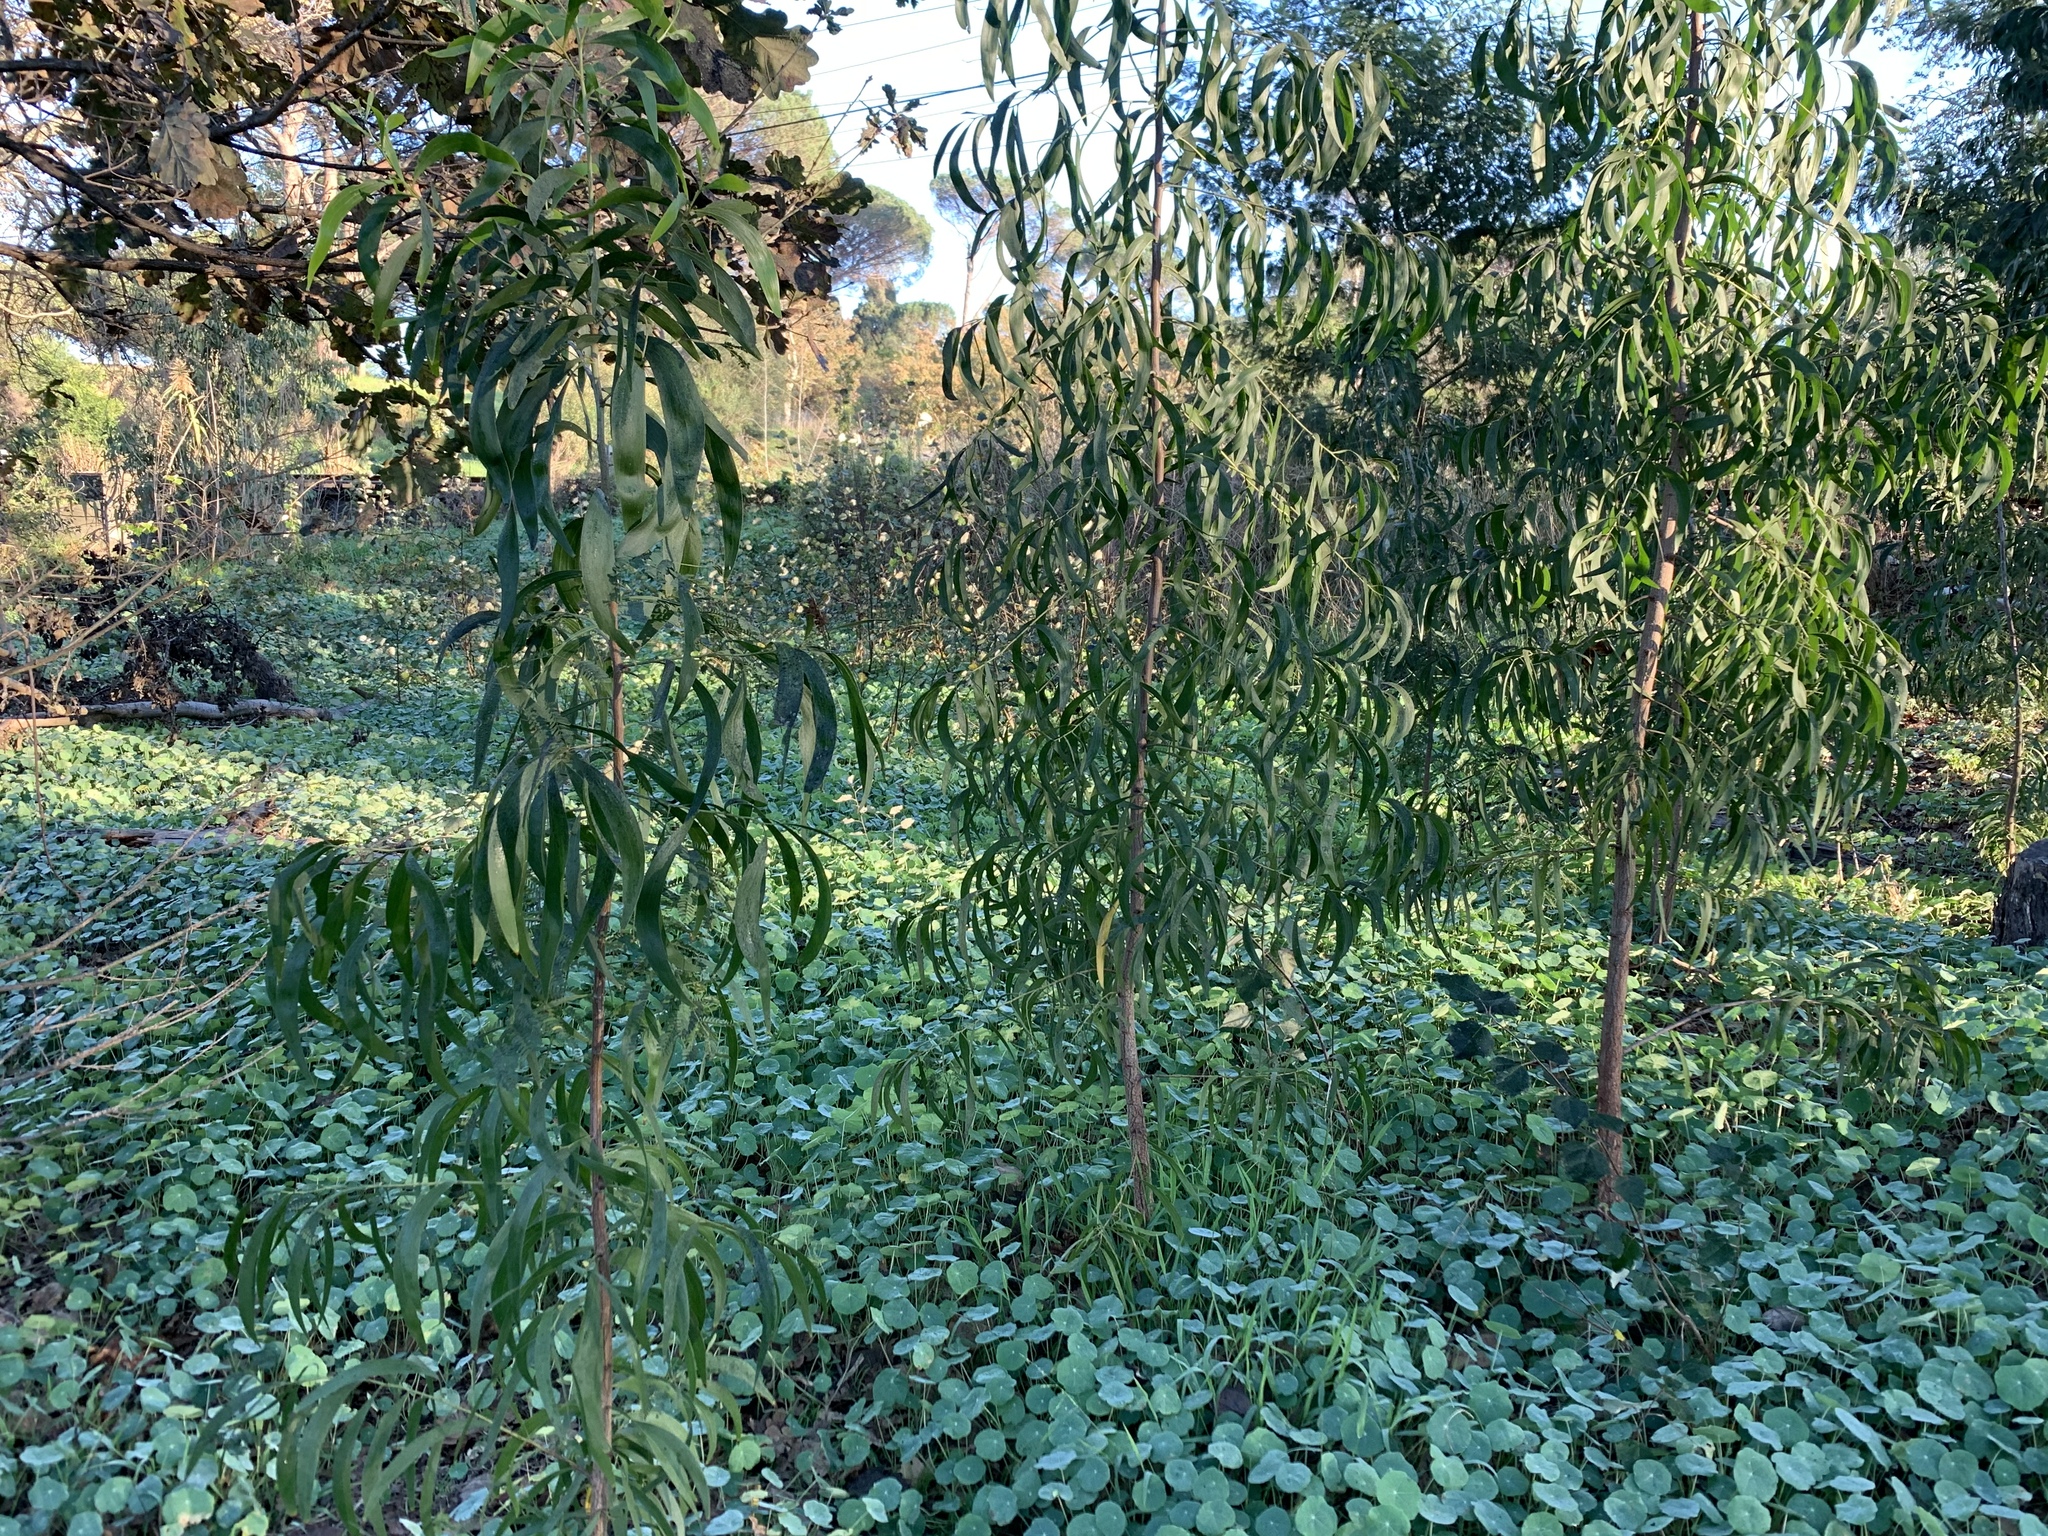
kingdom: Plantae
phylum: Tracheophyta
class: Magnoliopsida
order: Fabales
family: Fabaceae
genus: Acacia
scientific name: Acacia implexa
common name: Black wattle
